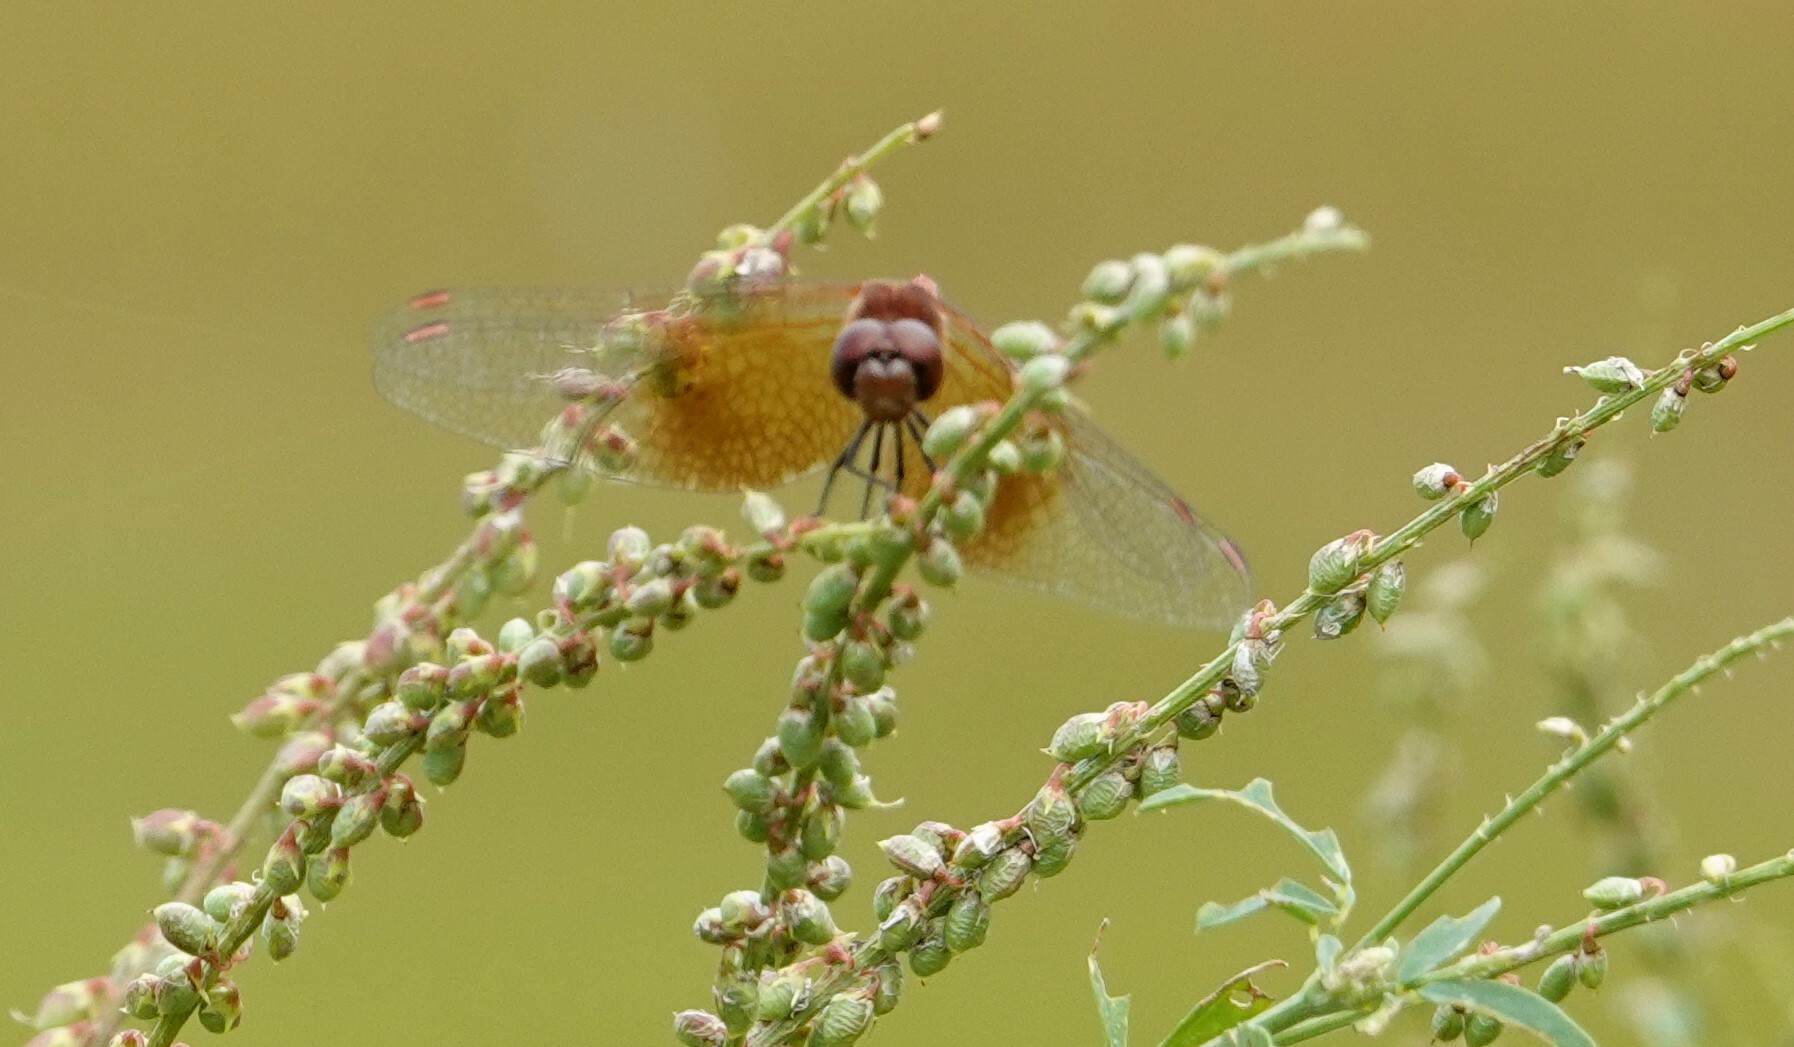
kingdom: Animalia
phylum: Arthropoda
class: Insecta
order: Odonata
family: Libellulidae
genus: Sympetrum
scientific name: Sympetrum semicinctum
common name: Band-winged meadowhawk
